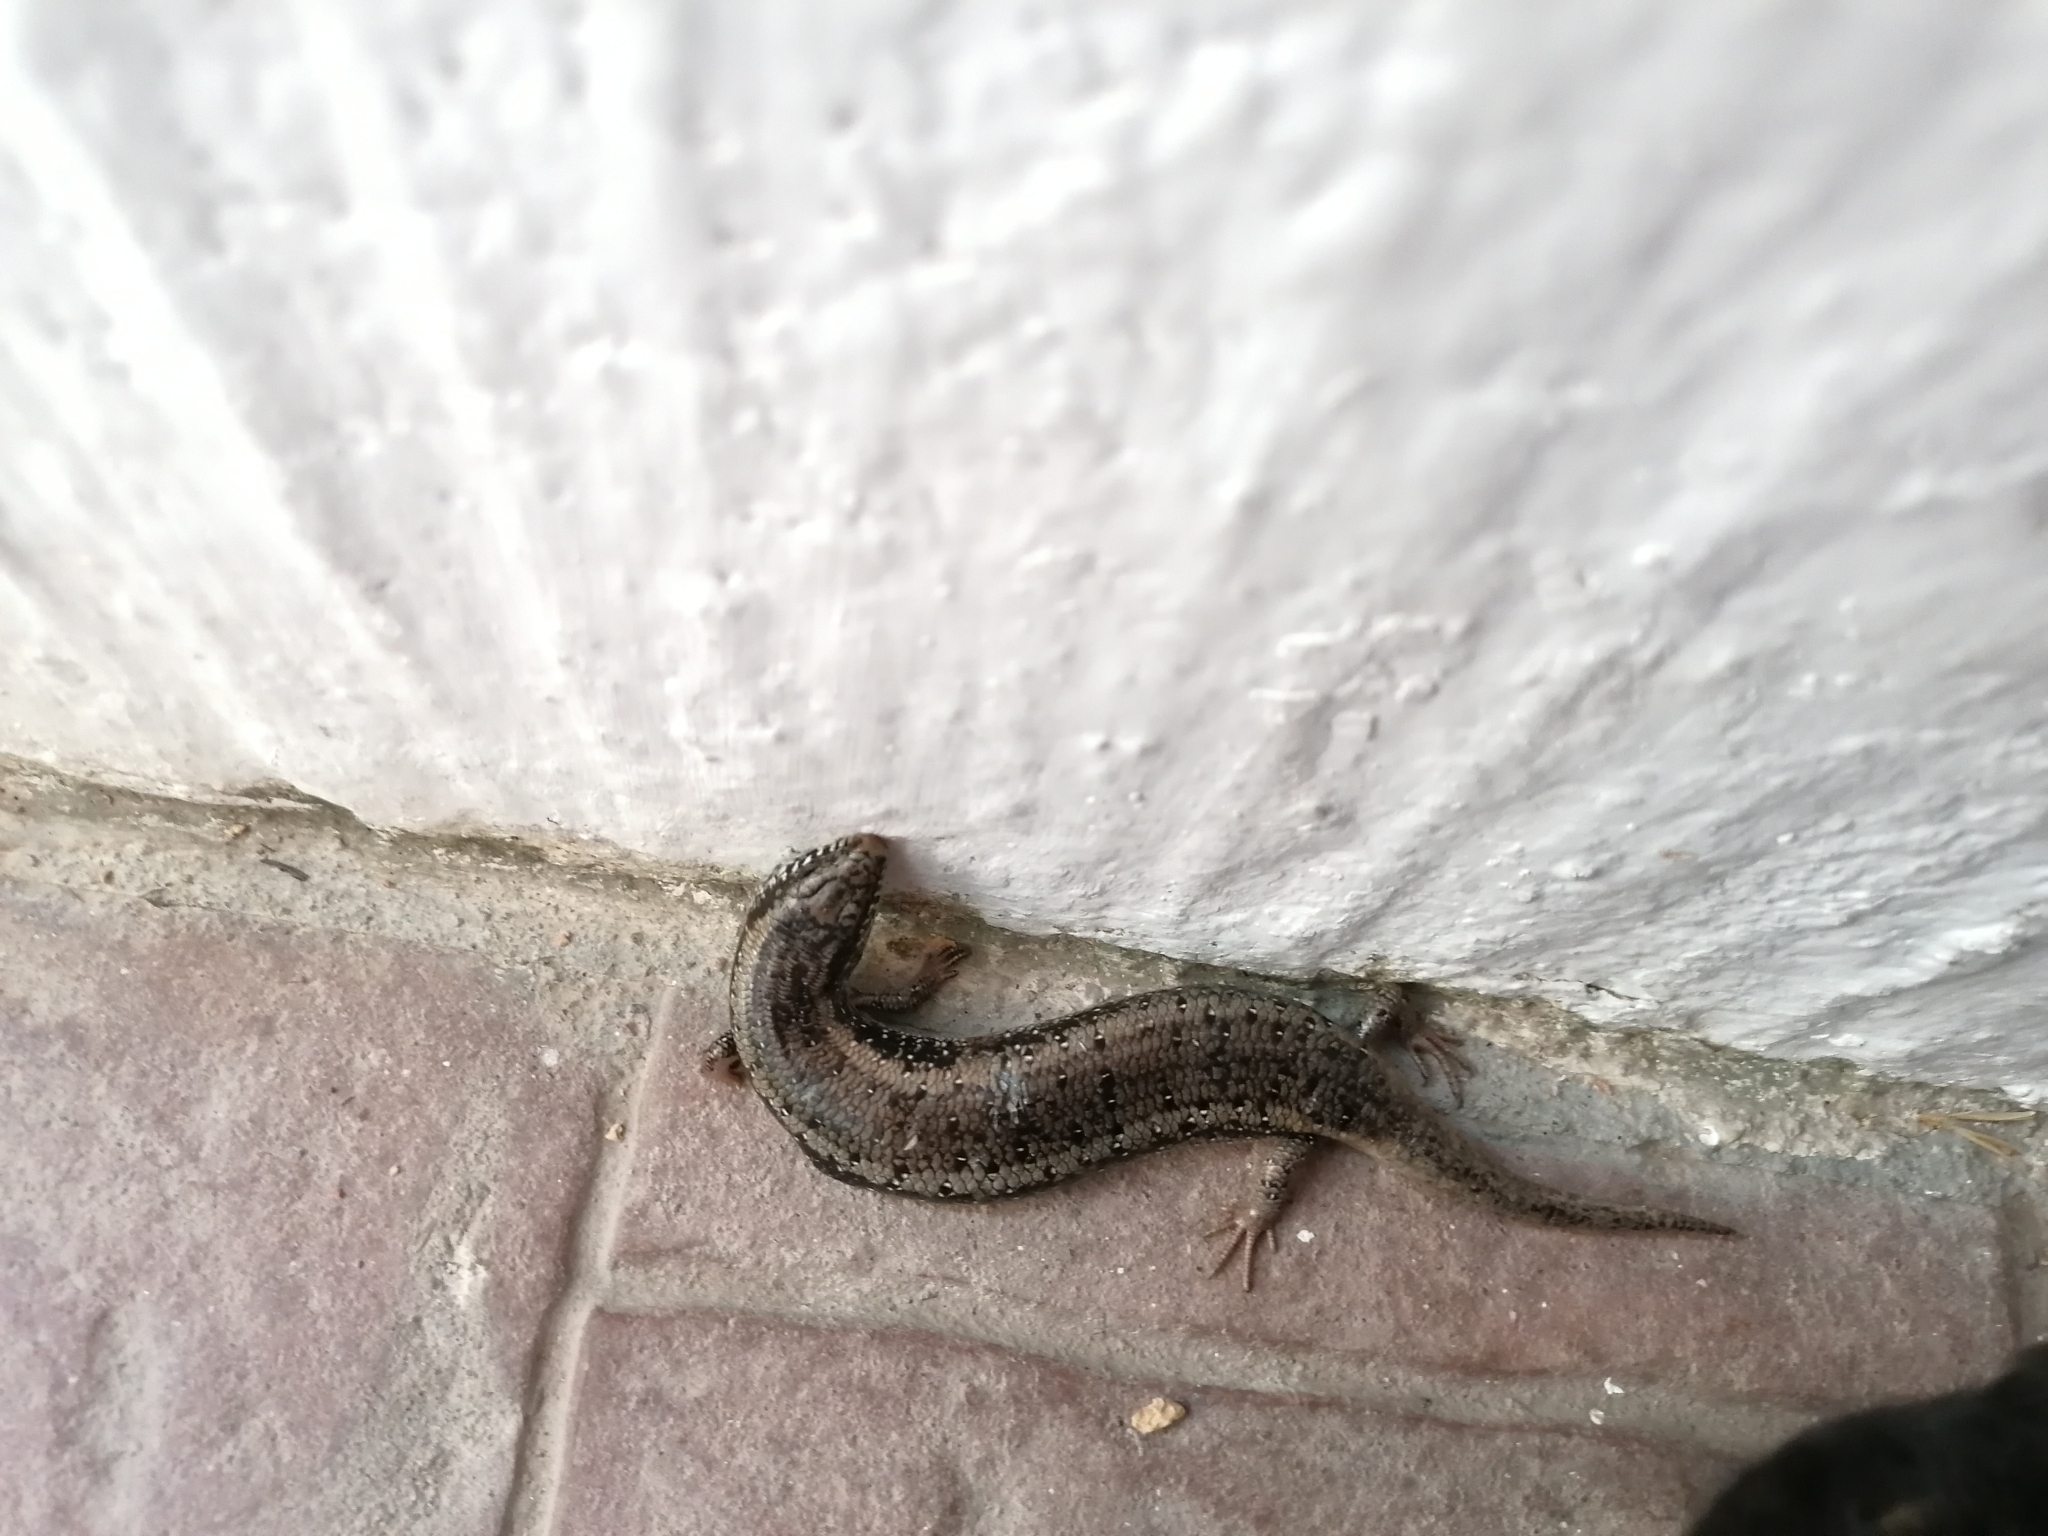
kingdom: Animalia
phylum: Chordata
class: Squamata
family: Scincidae
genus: Chalcides
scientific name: Chalcides ocellatus
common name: Ocellated skink
